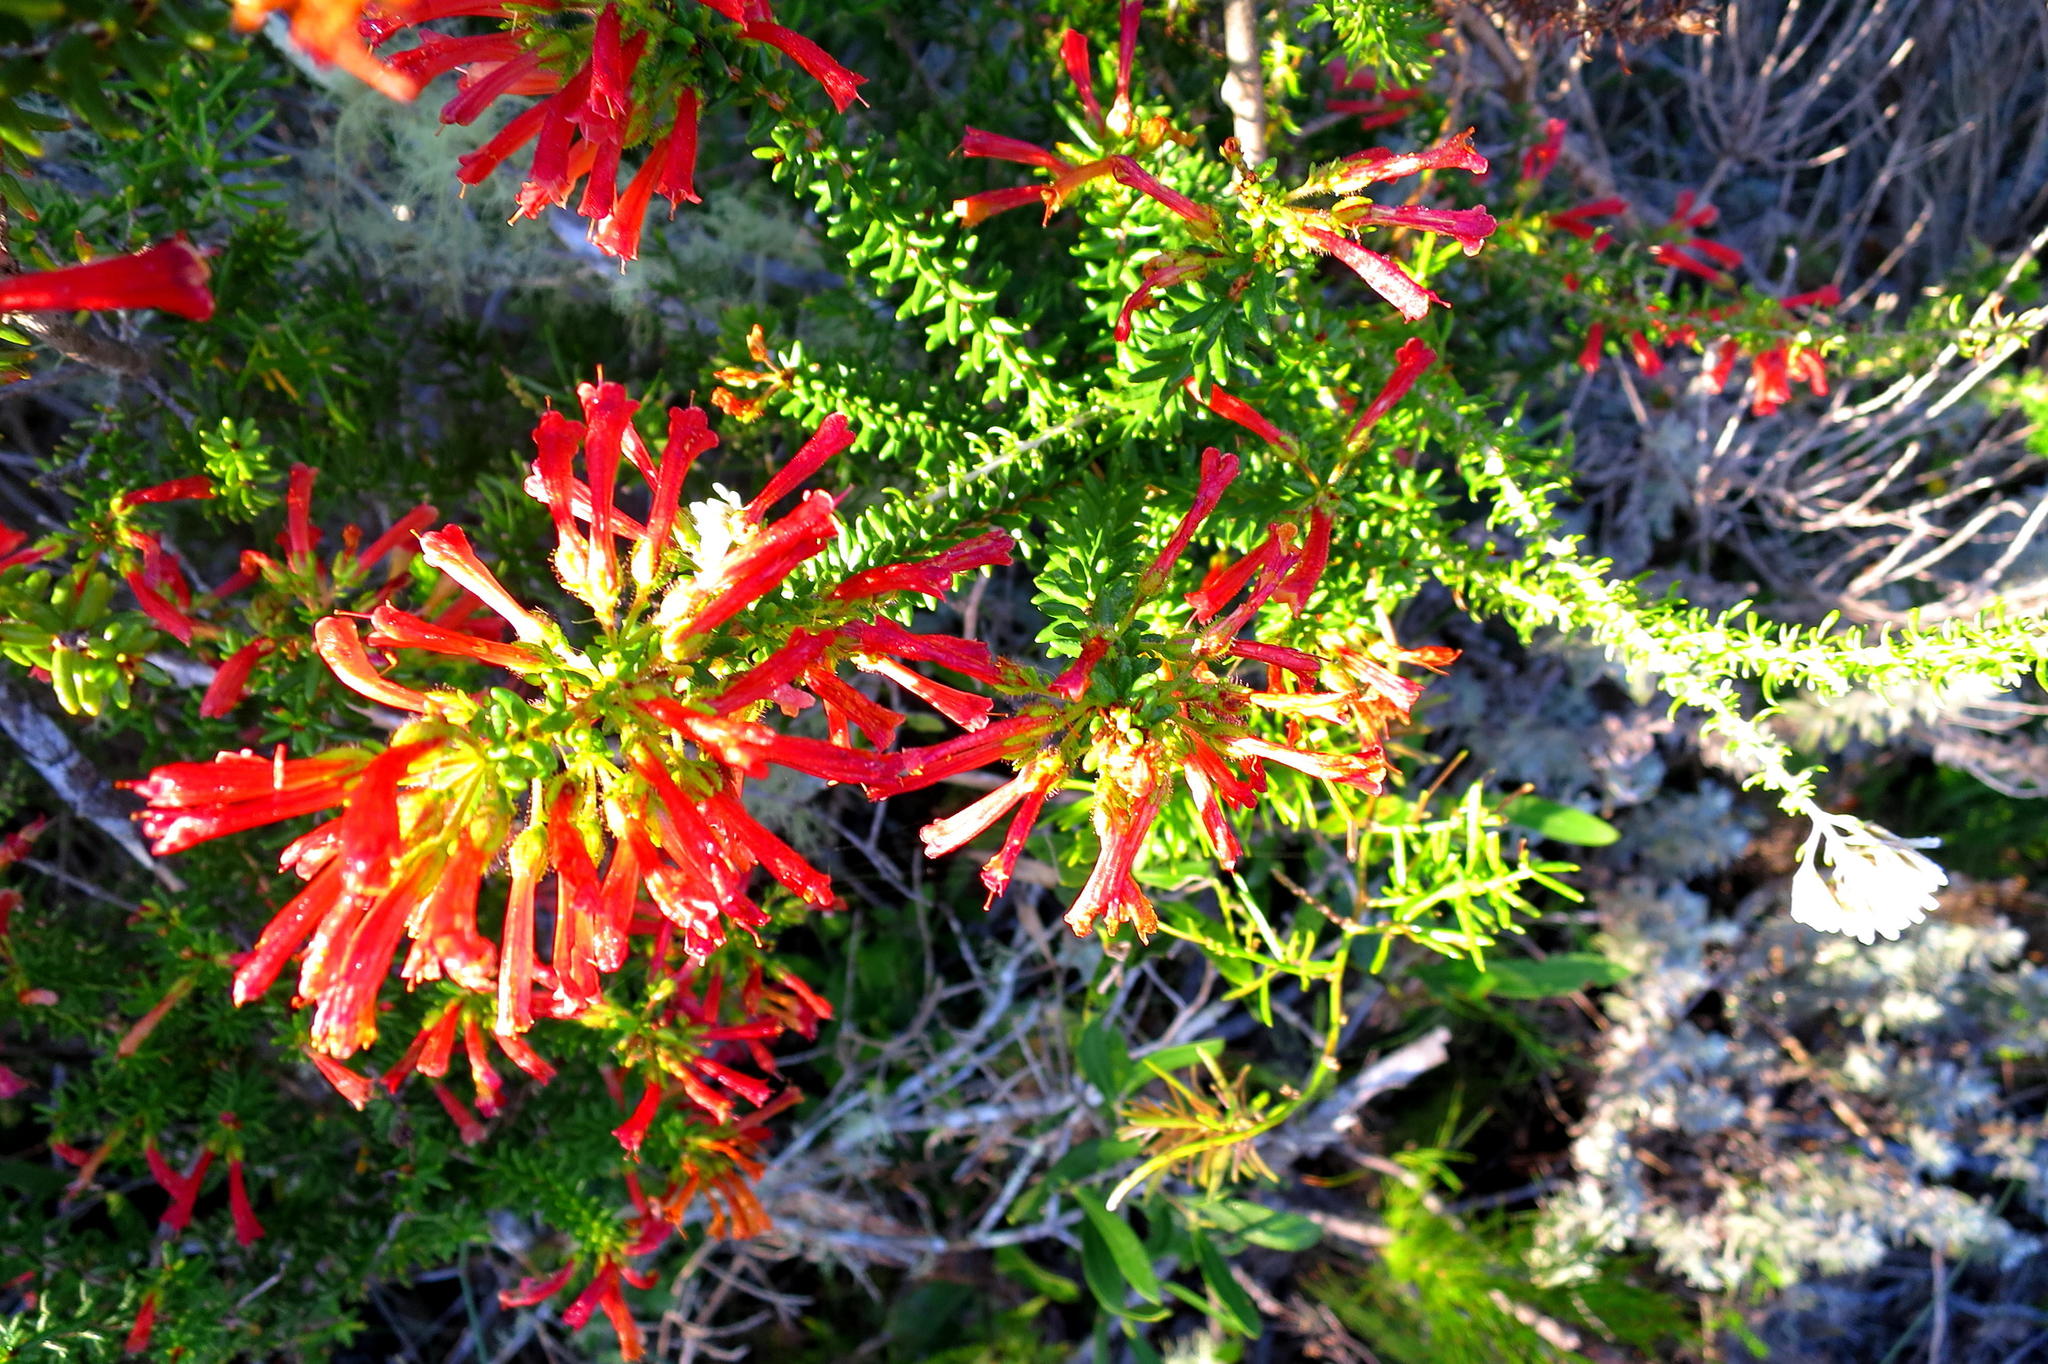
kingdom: Plantae
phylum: Tracheophyta
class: Magnoliopsida
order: Ericales
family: Ericaceae
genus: Erica
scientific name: Erica glandulosa
